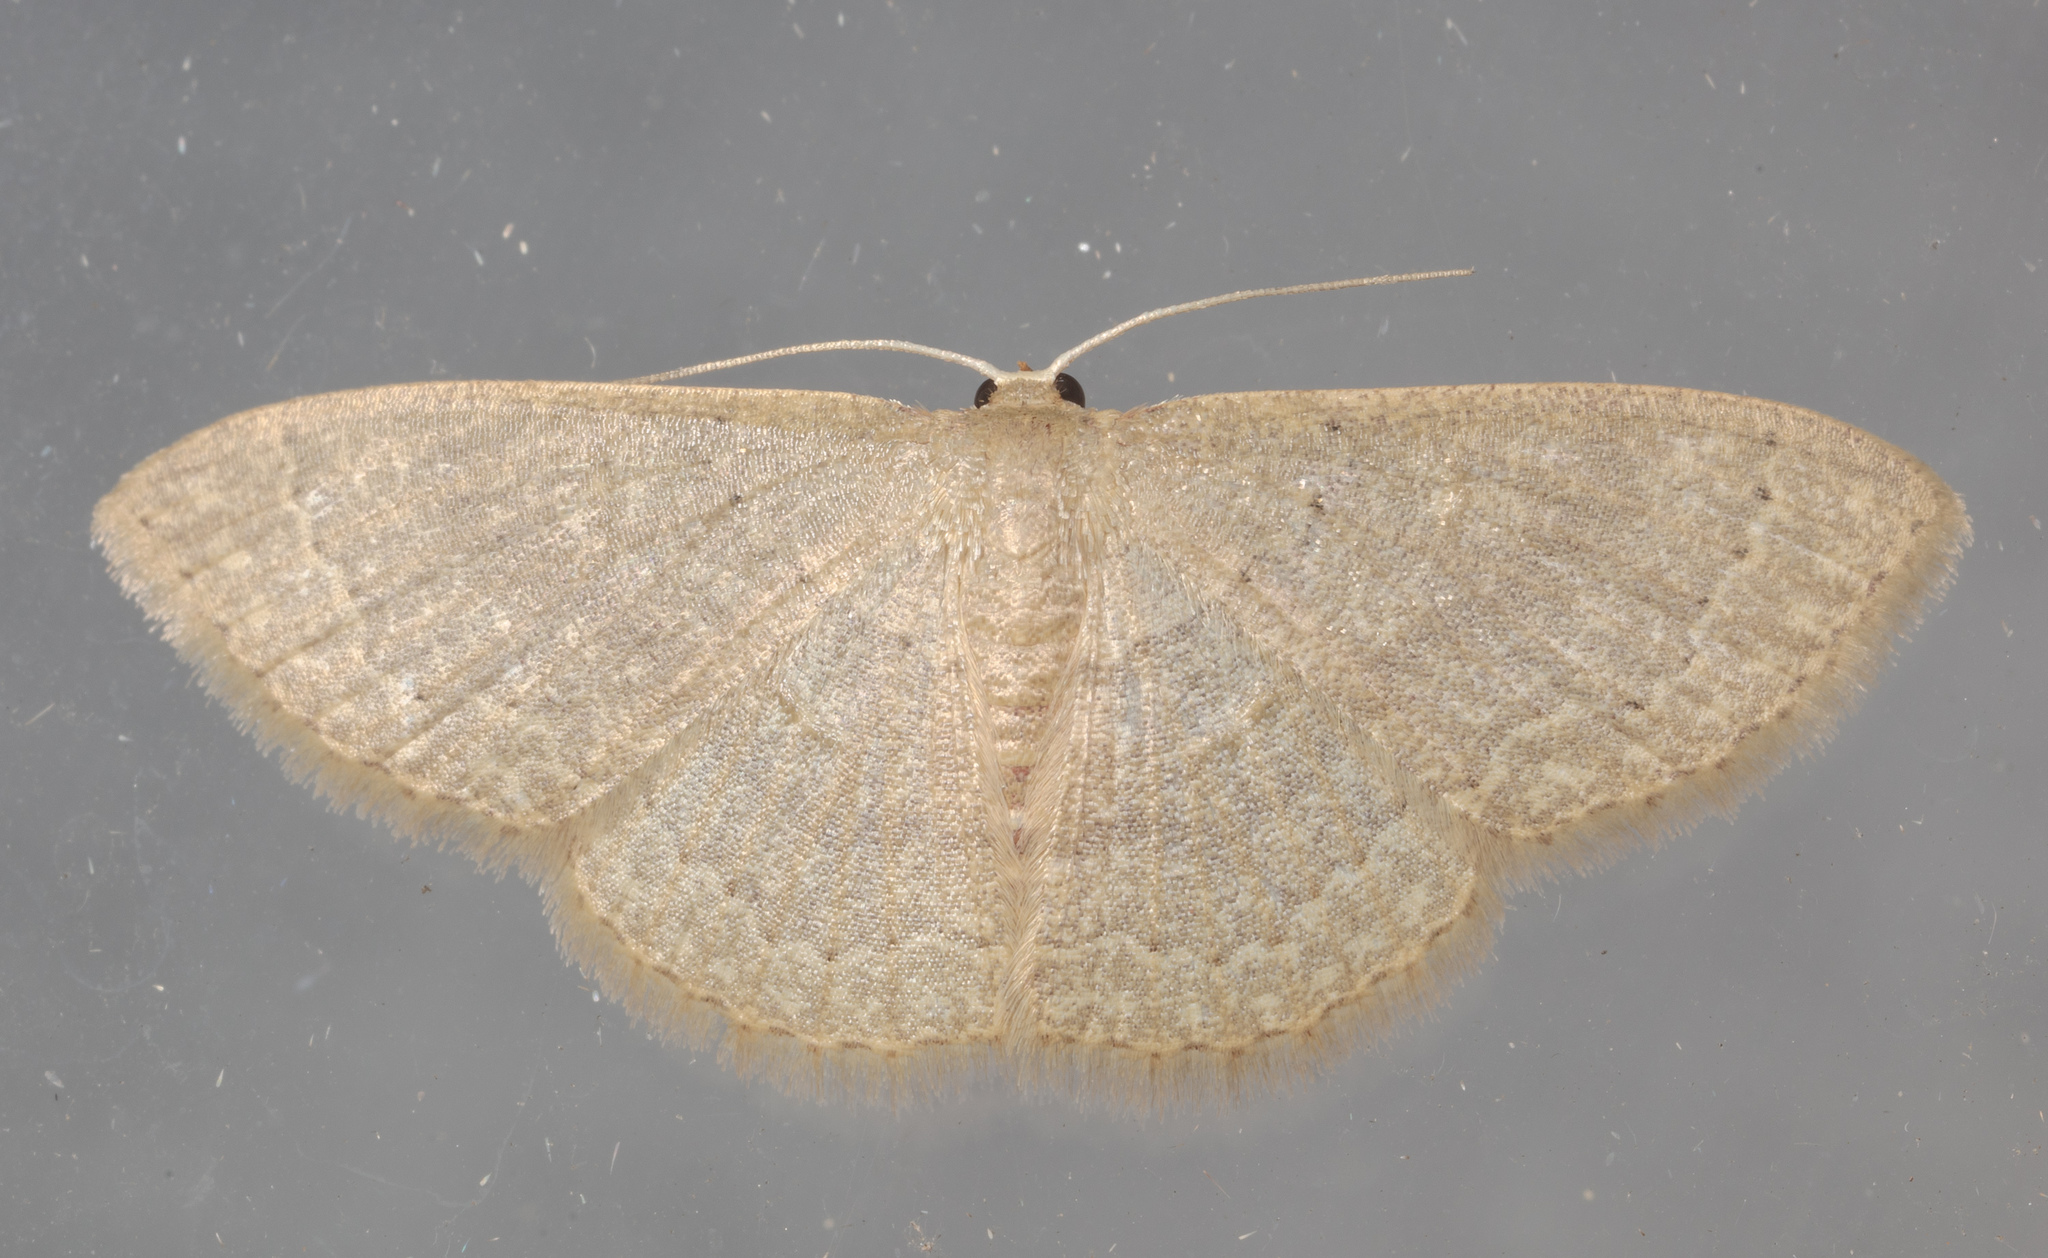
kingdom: Animalia
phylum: Arthropoda
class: Insecta
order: Lepidoptera
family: Geometridae
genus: Pleuroprucha
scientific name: Pleuroprucha insulsaria
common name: Common tan wave
